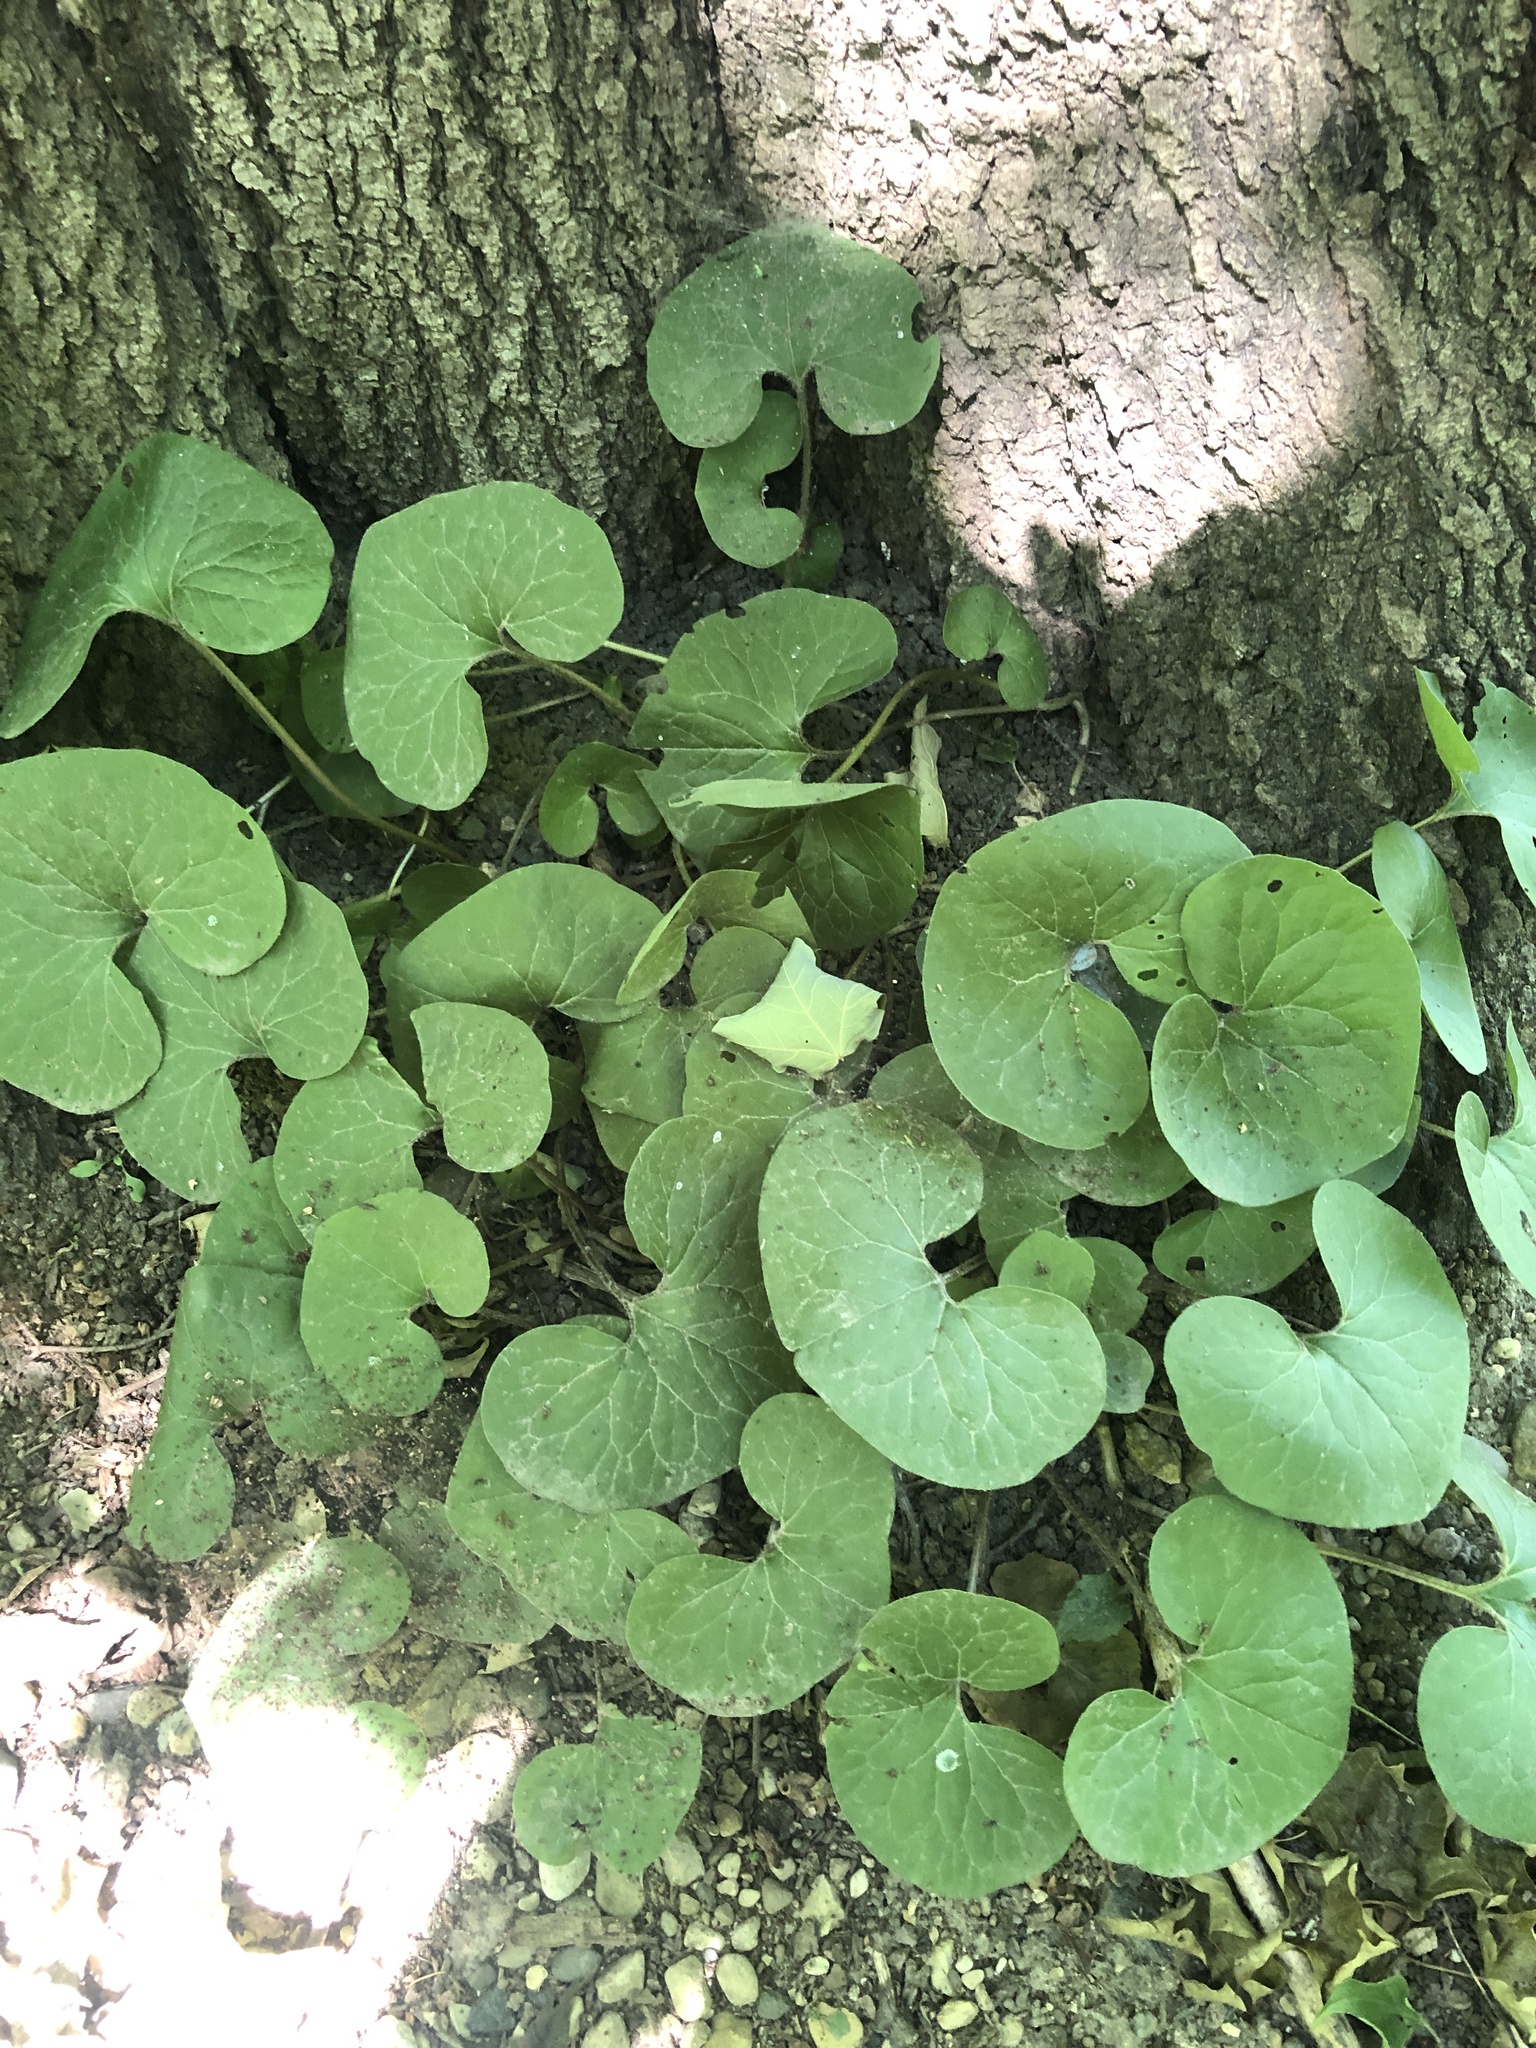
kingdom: Plantae
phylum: Tracheophyta
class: Magnoliopsida
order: Piperales
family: Aristolochiaceae
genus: Asarum
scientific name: Asarum canadense
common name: Wild ginger
